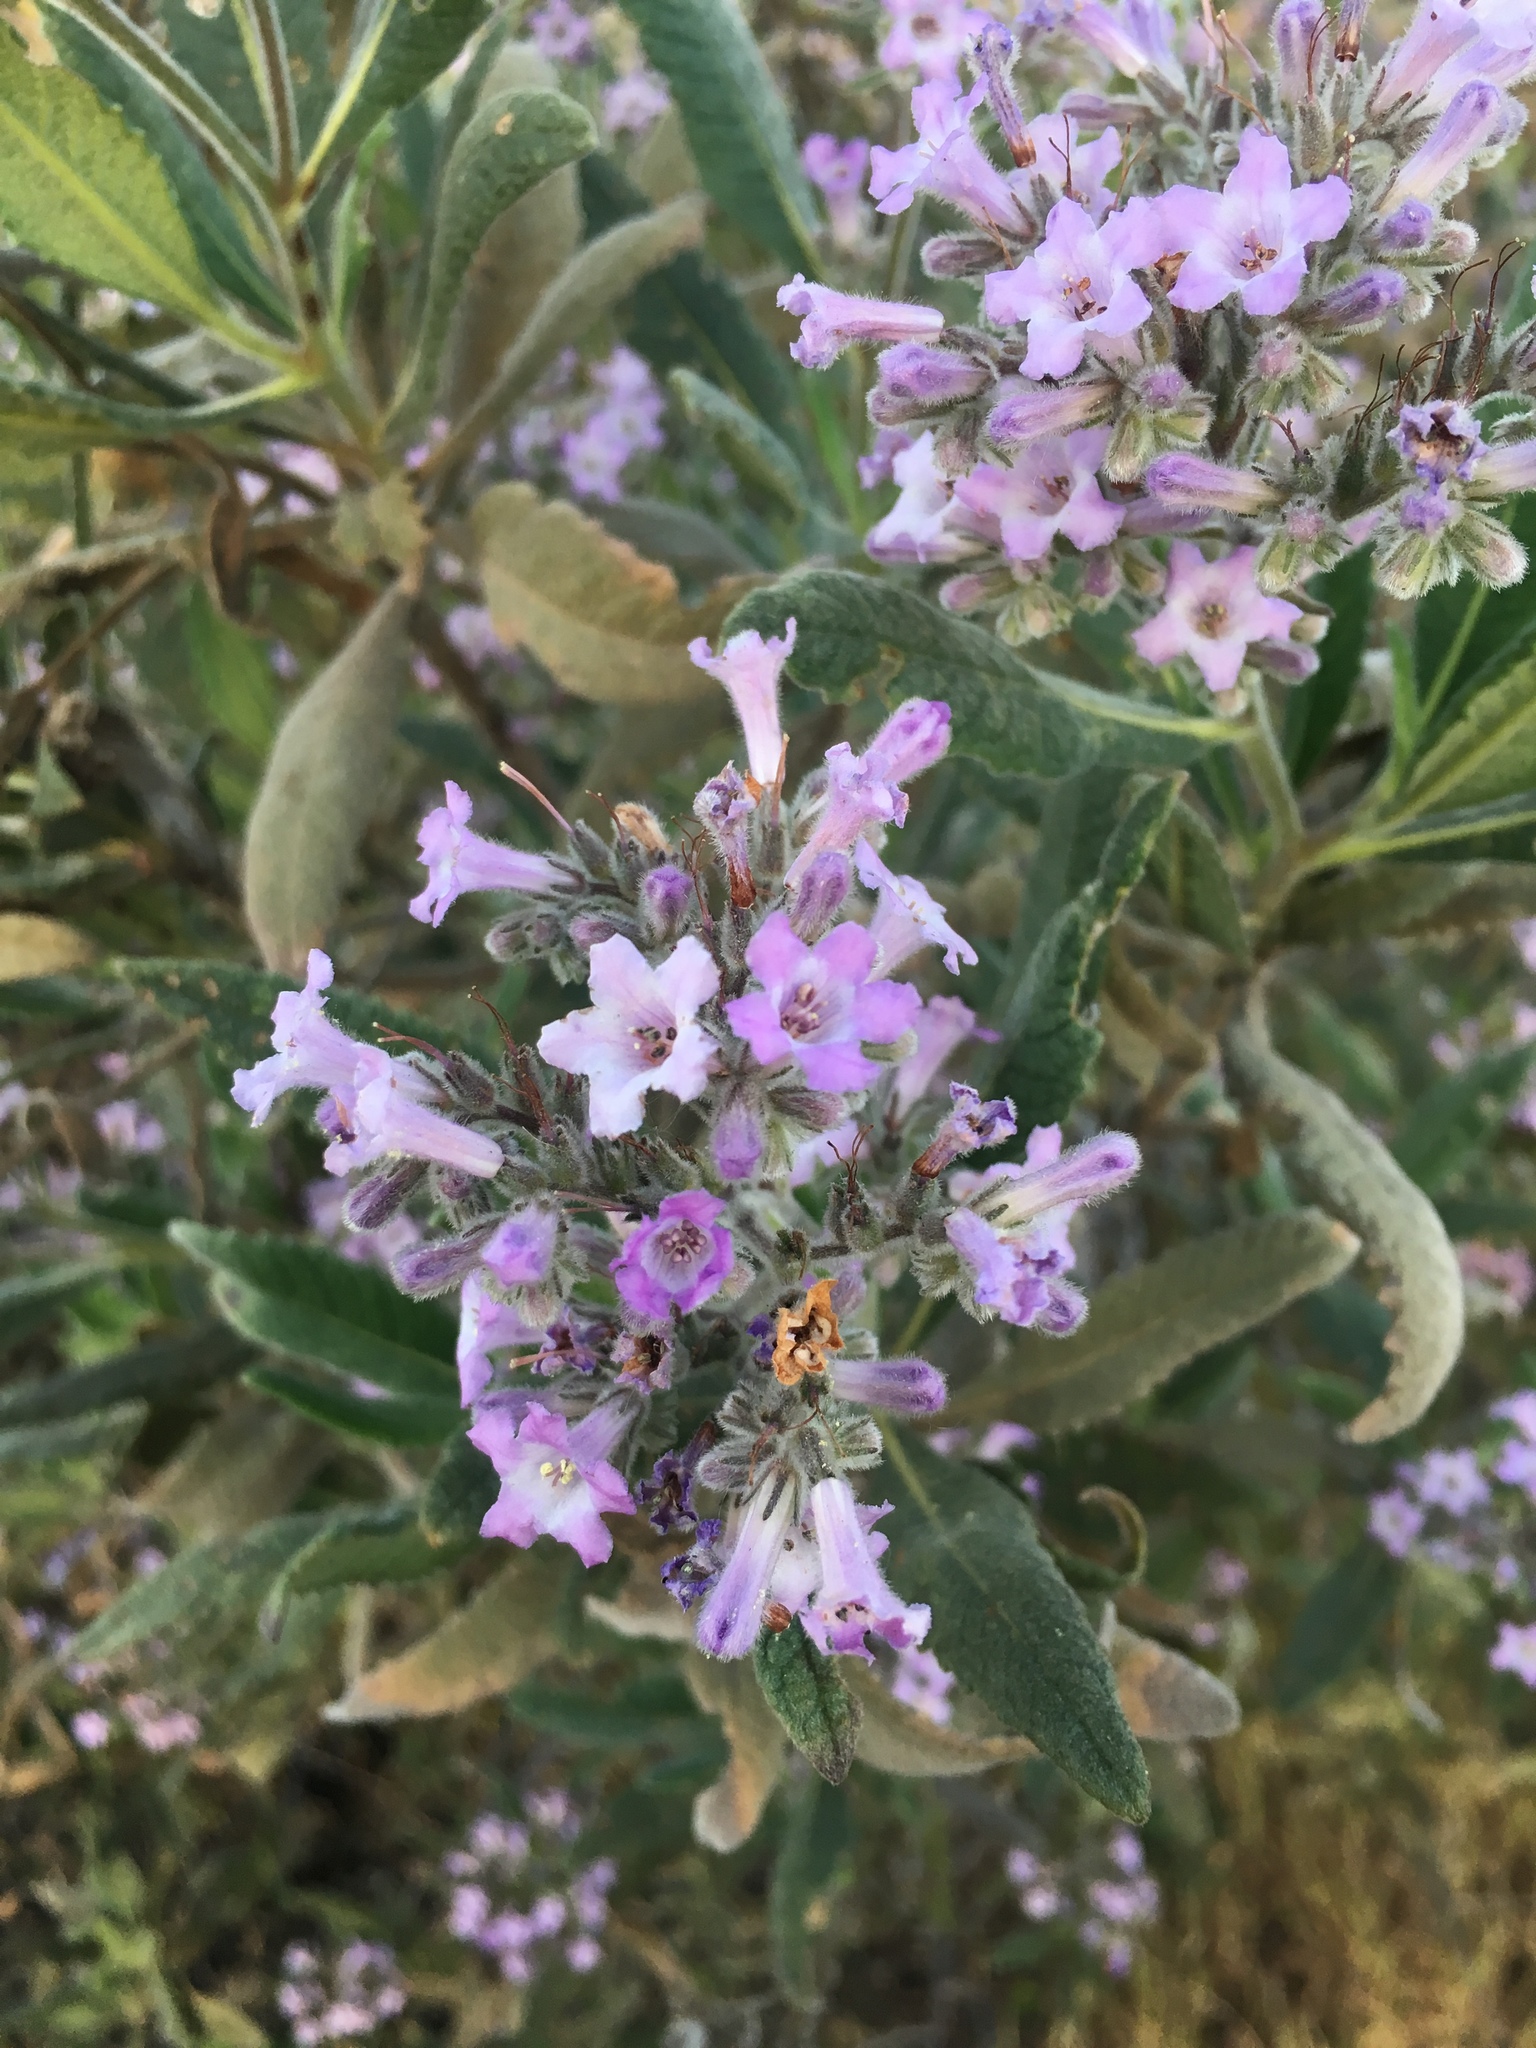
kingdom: Plantae
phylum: Tracheophyta
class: Magnoliopsida
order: Boraginales
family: Namaceae
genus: Eriodictyon
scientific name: Eriodictyon crassifolium
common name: Thick-leaf yerba-santa
